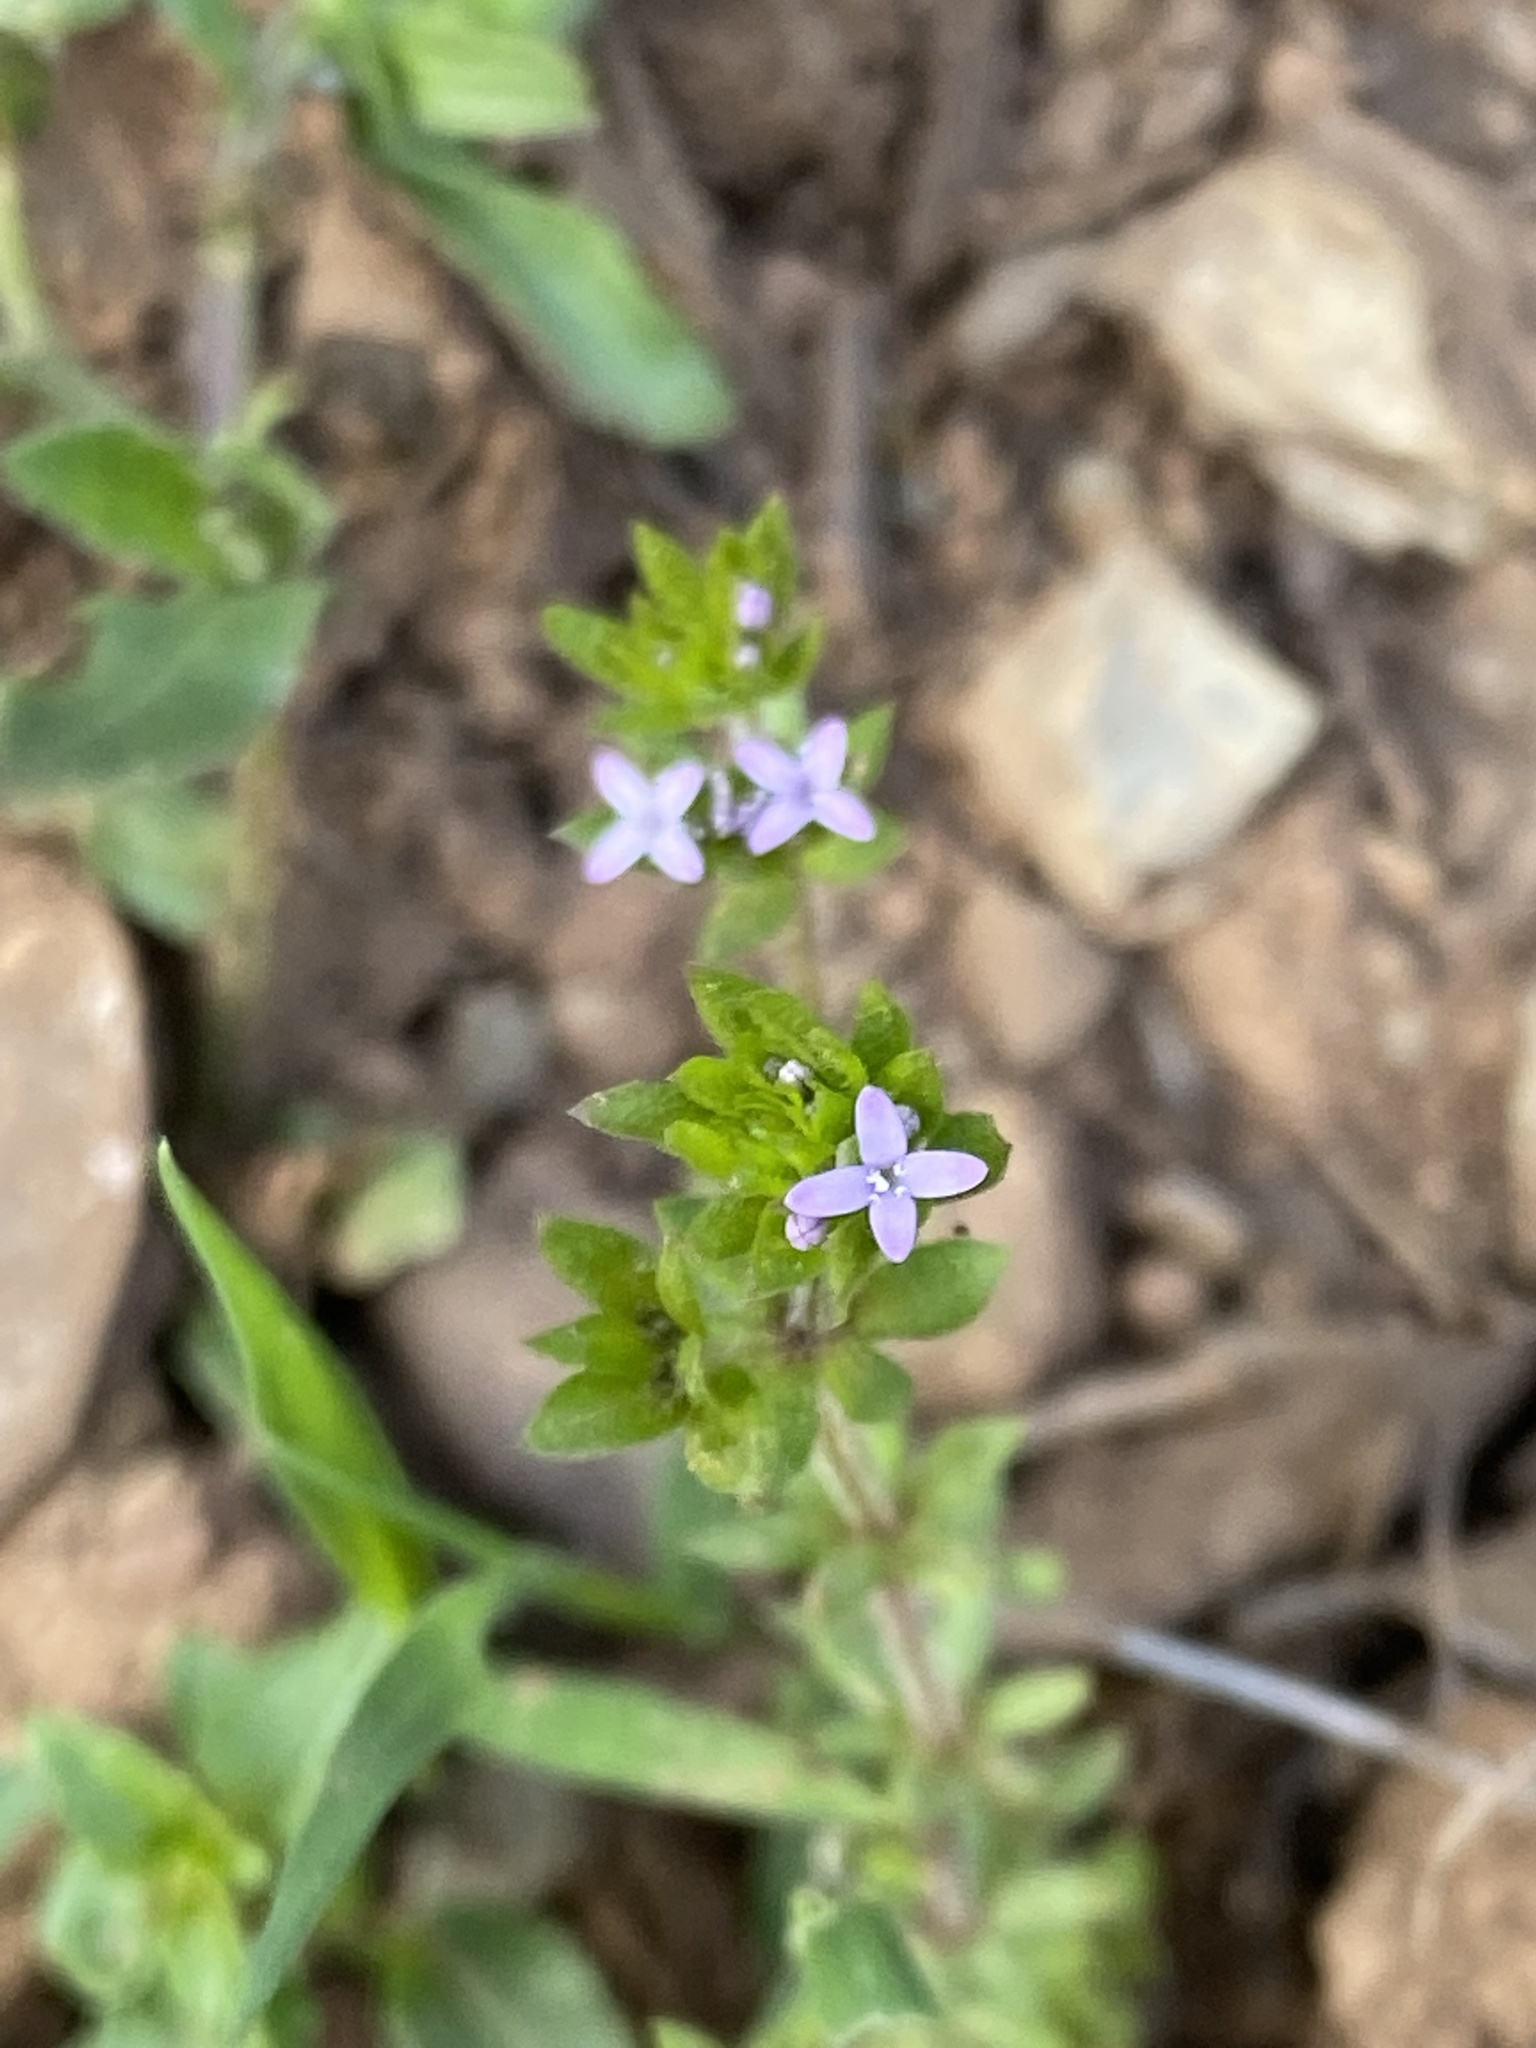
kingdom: Plantae
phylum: Tracheophyta
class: Magnoliopsida
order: Gentianales
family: Rubiaceae
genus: Sherardia
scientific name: Sherardia arvensis
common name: Field madder
